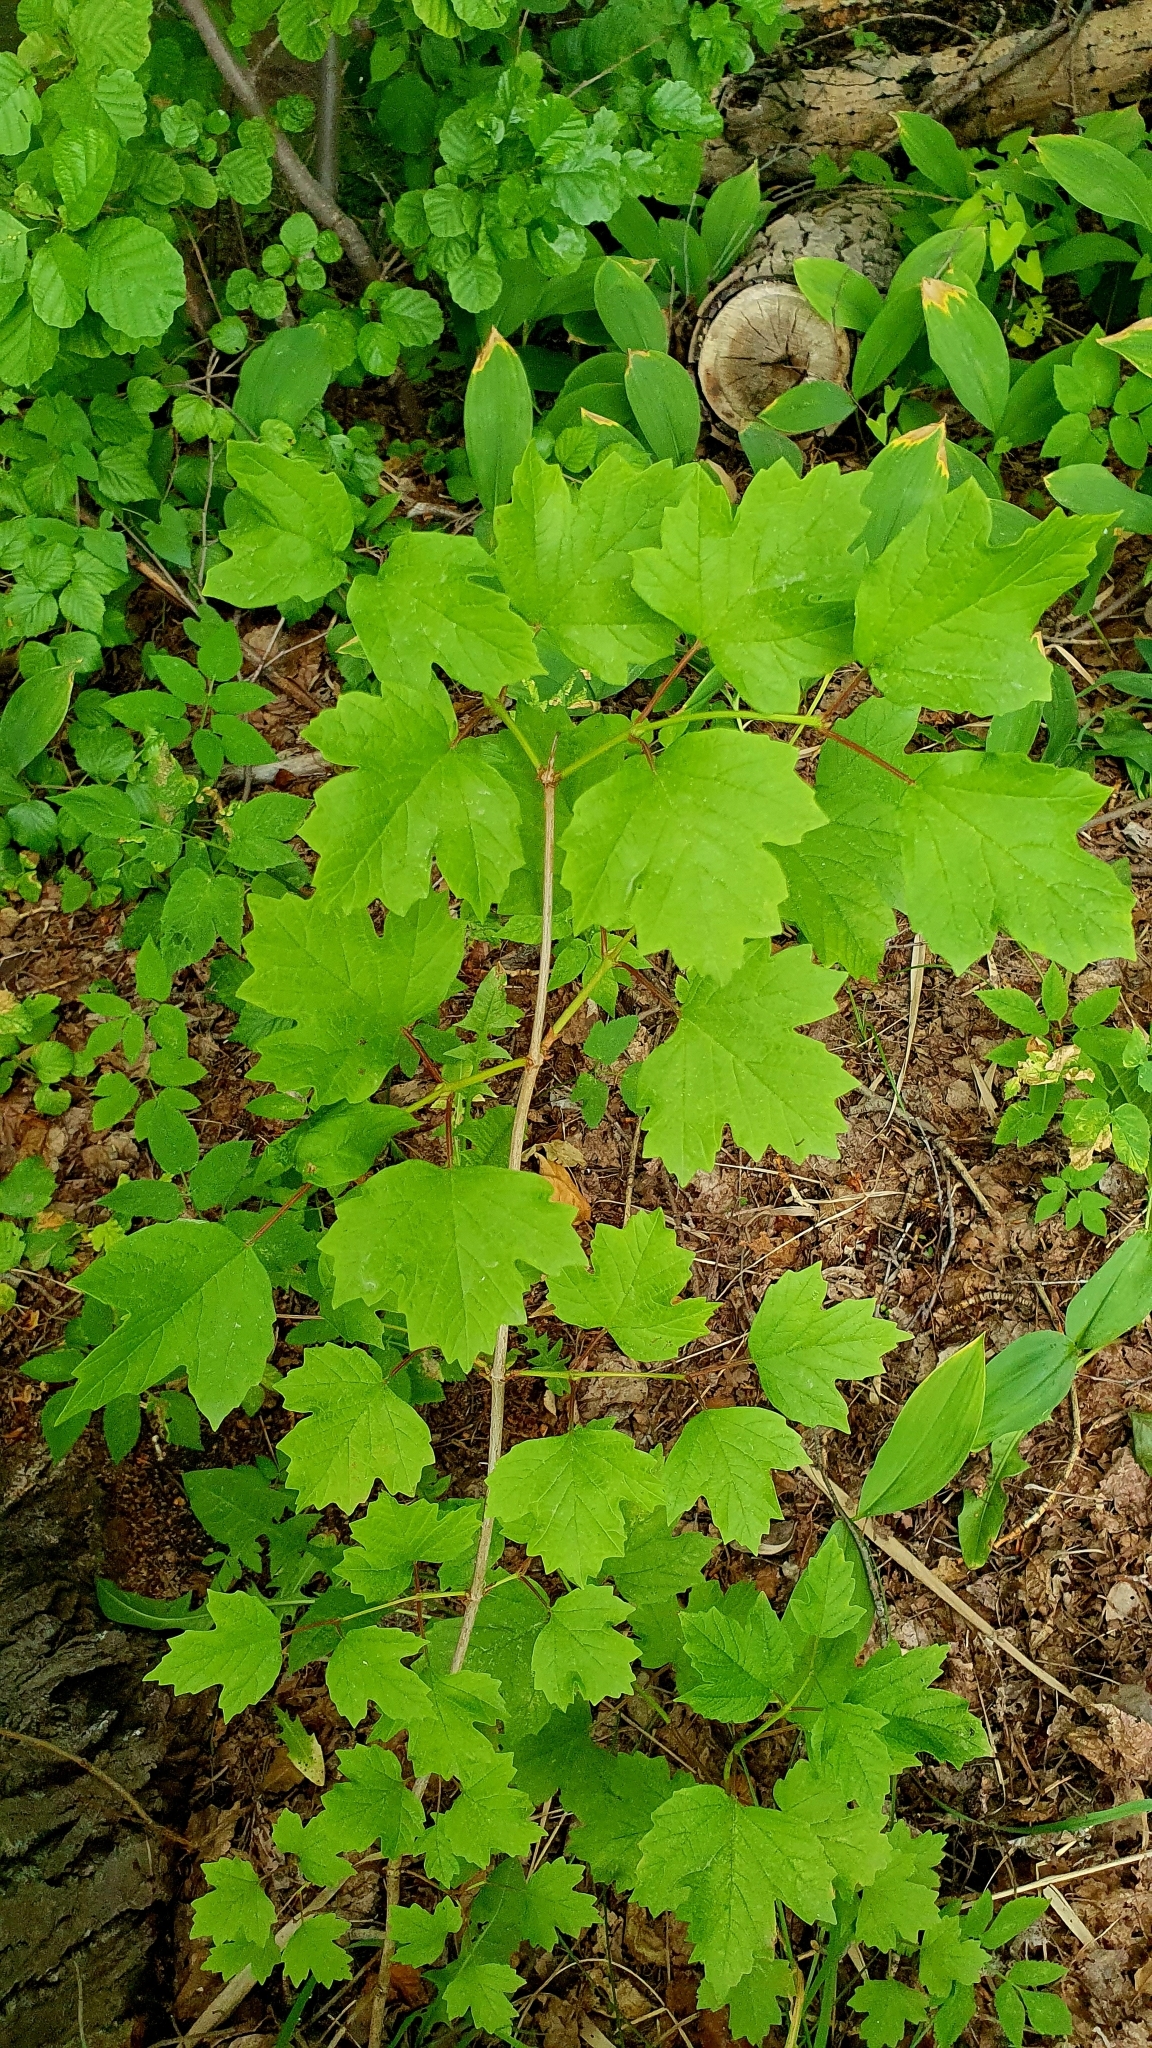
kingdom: Plantae
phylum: Tracheophyta
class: Magnoliopsida
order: Dipsacales
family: Viburnaceae
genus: Viburnum
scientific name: Viburnum opulus
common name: Guelder-rose
